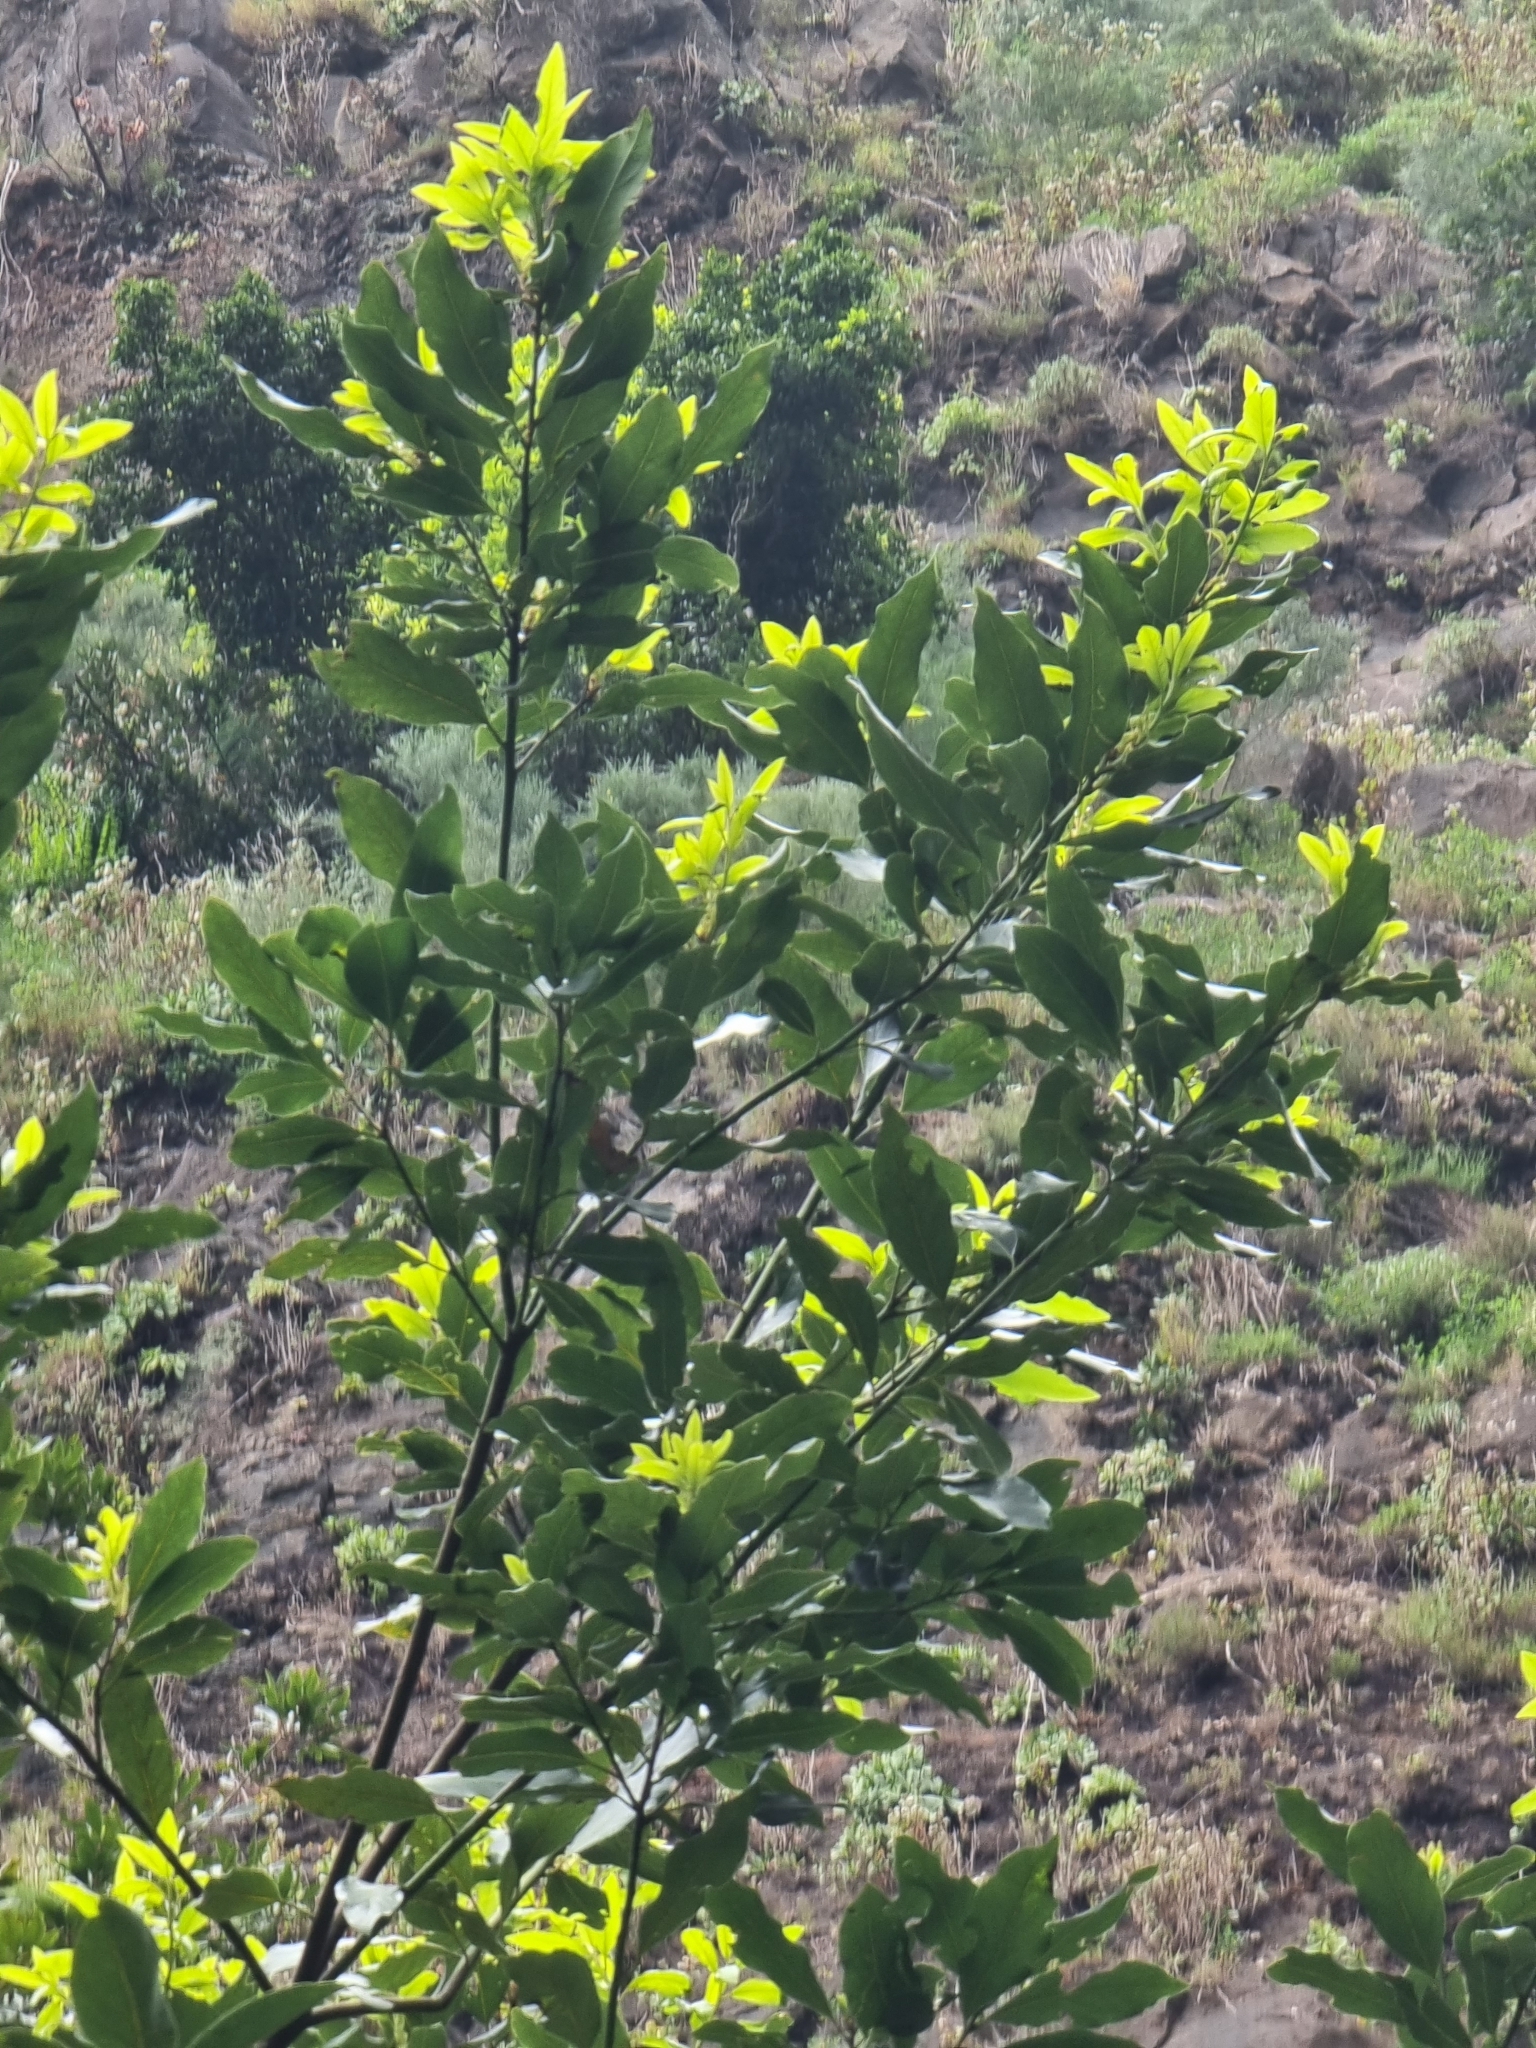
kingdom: Plantae
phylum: Tracheophyta
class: Magnoliopsida
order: Laurales
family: Lauraceae
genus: Laurus
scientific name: Laurus novocanariensis
